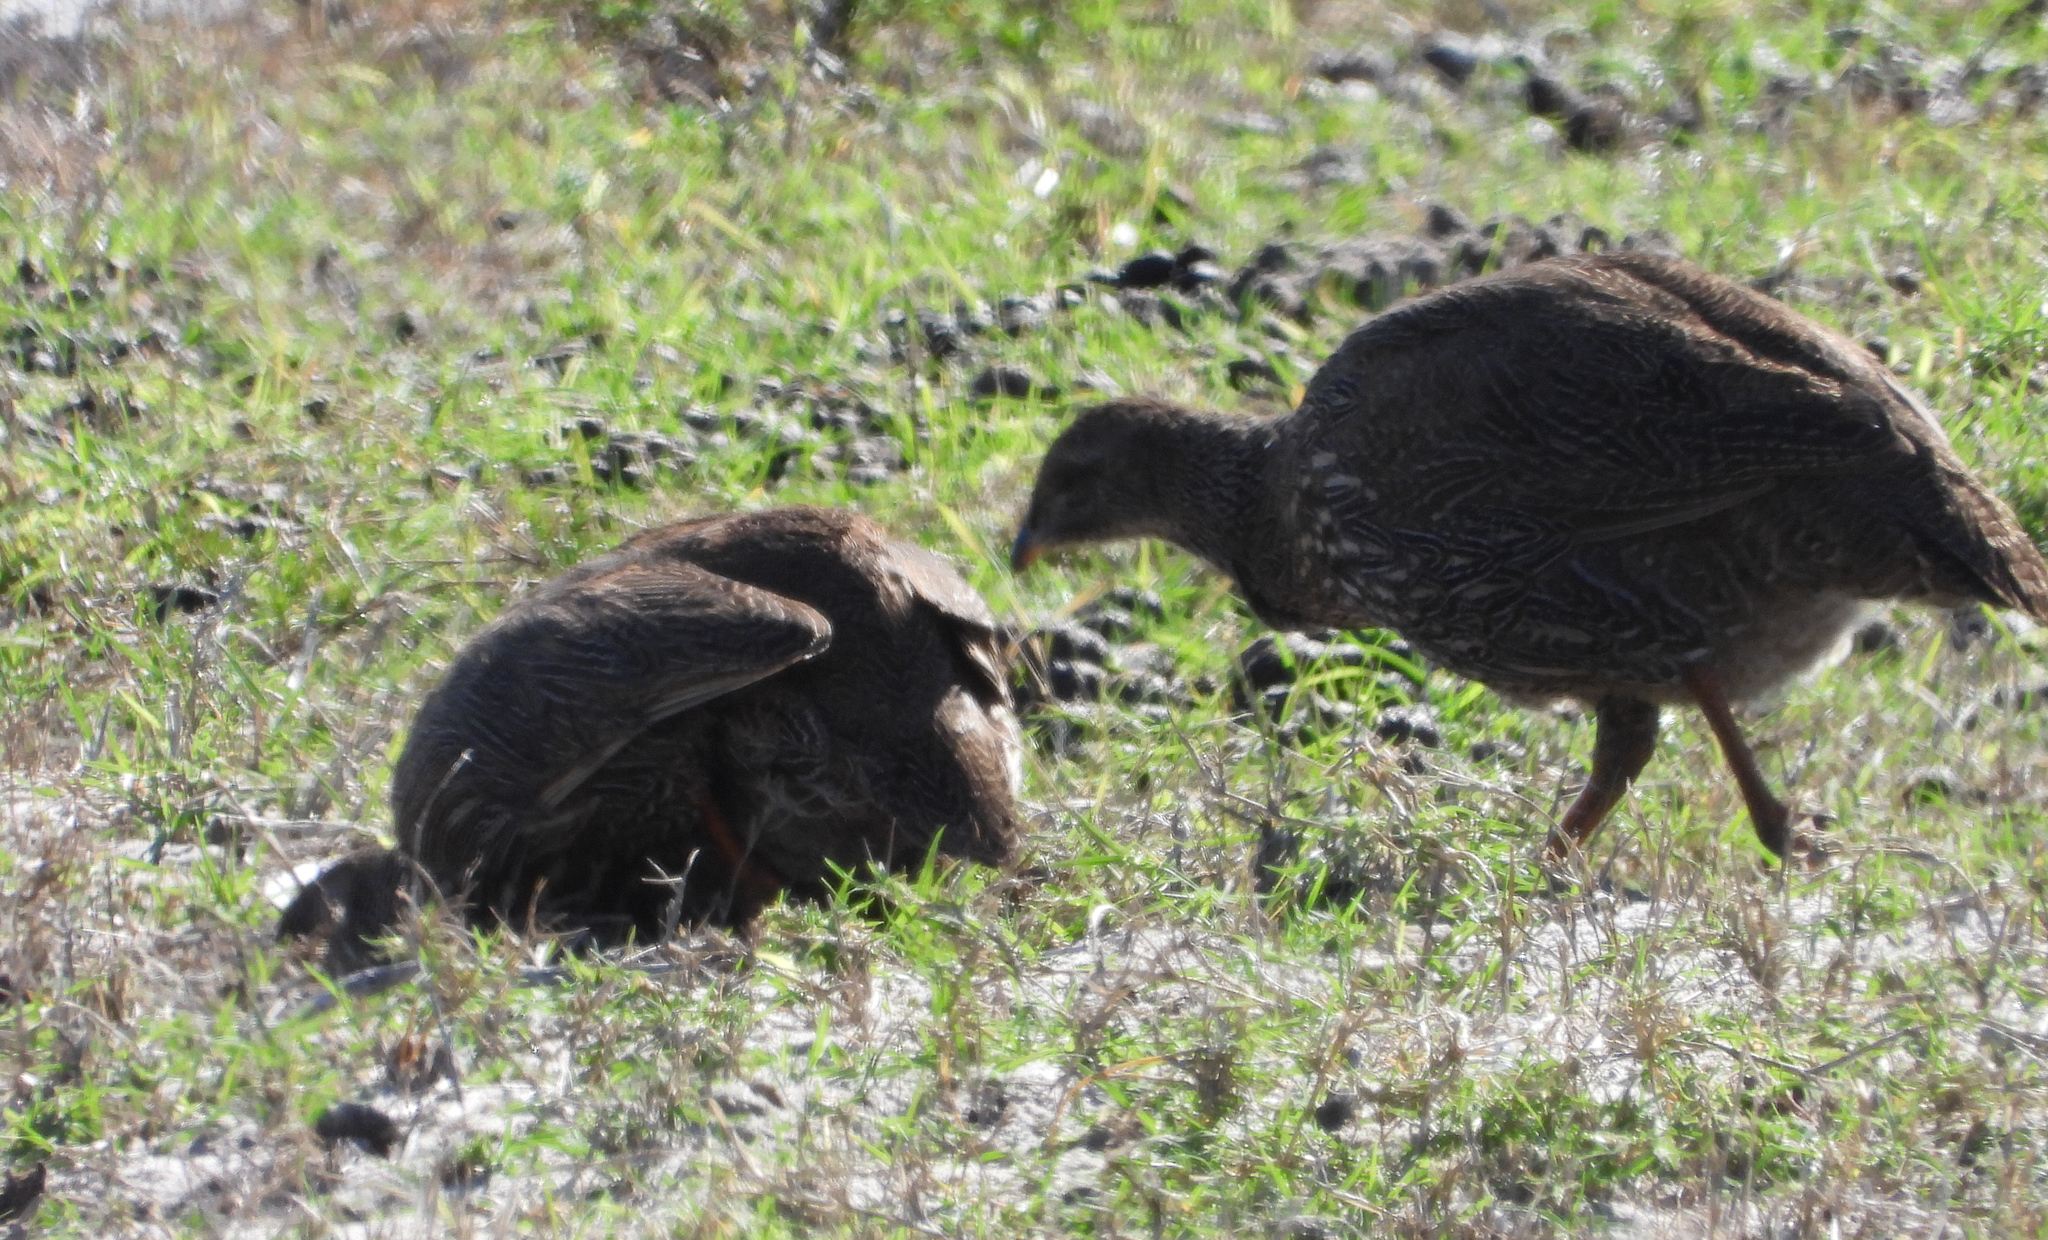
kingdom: Animalia
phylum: Chordata
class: Aves
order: Galliformes
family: Phasianidae
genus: Pternistis
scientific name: Pternistis capensis
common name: Cape spurfowl
